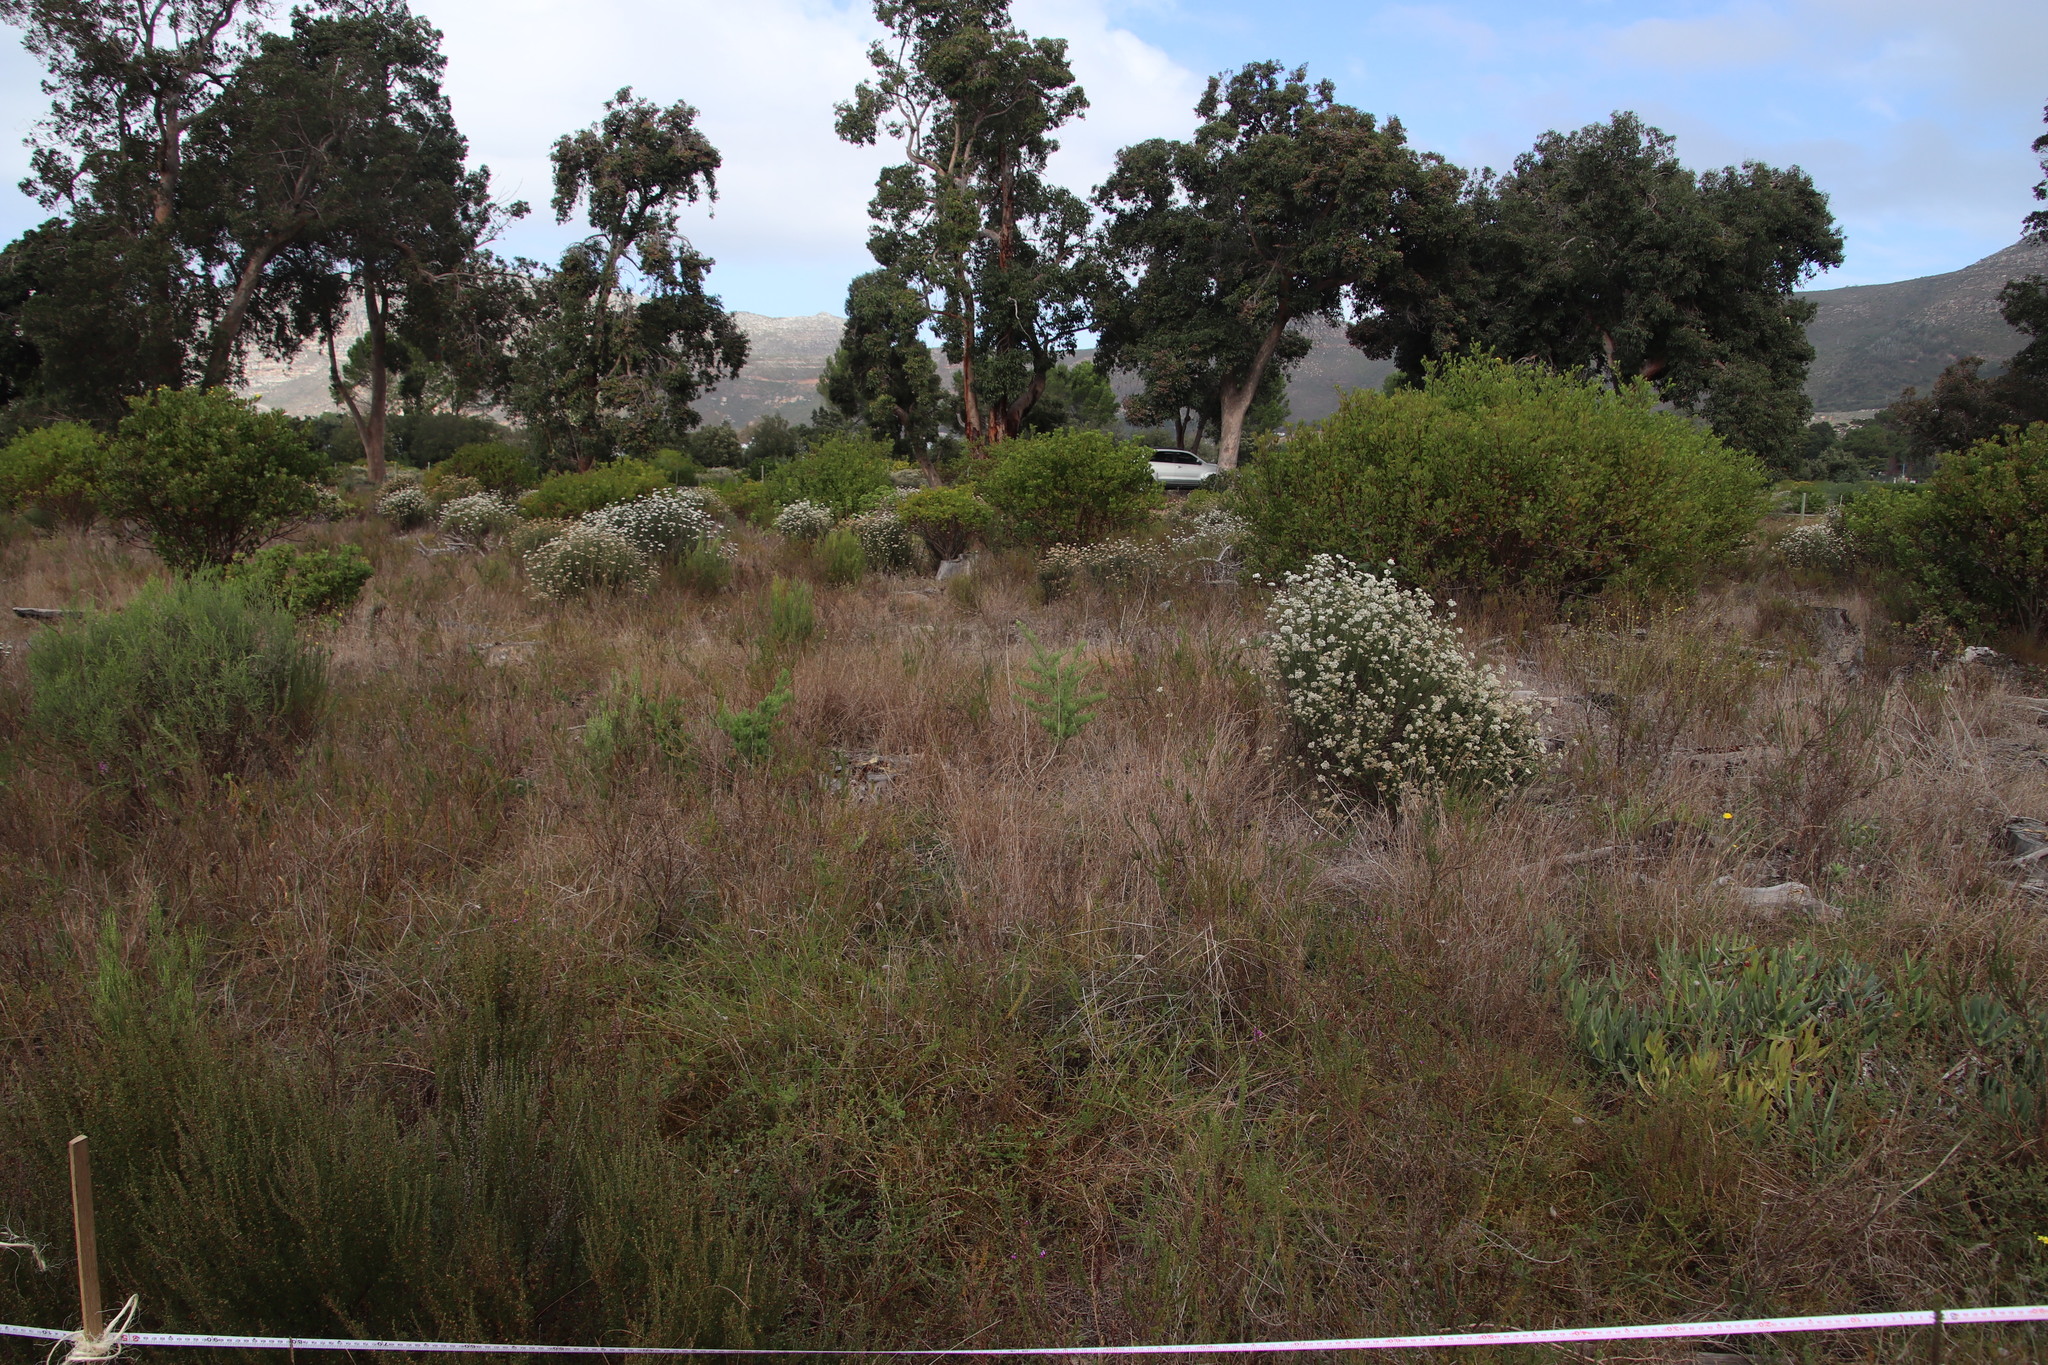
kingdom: Plantae
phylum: Tracheophyta
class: Liliopsida
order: Asparagales
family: Asparagaceae
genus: Asparagus
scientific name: Asparagus rubicundus
